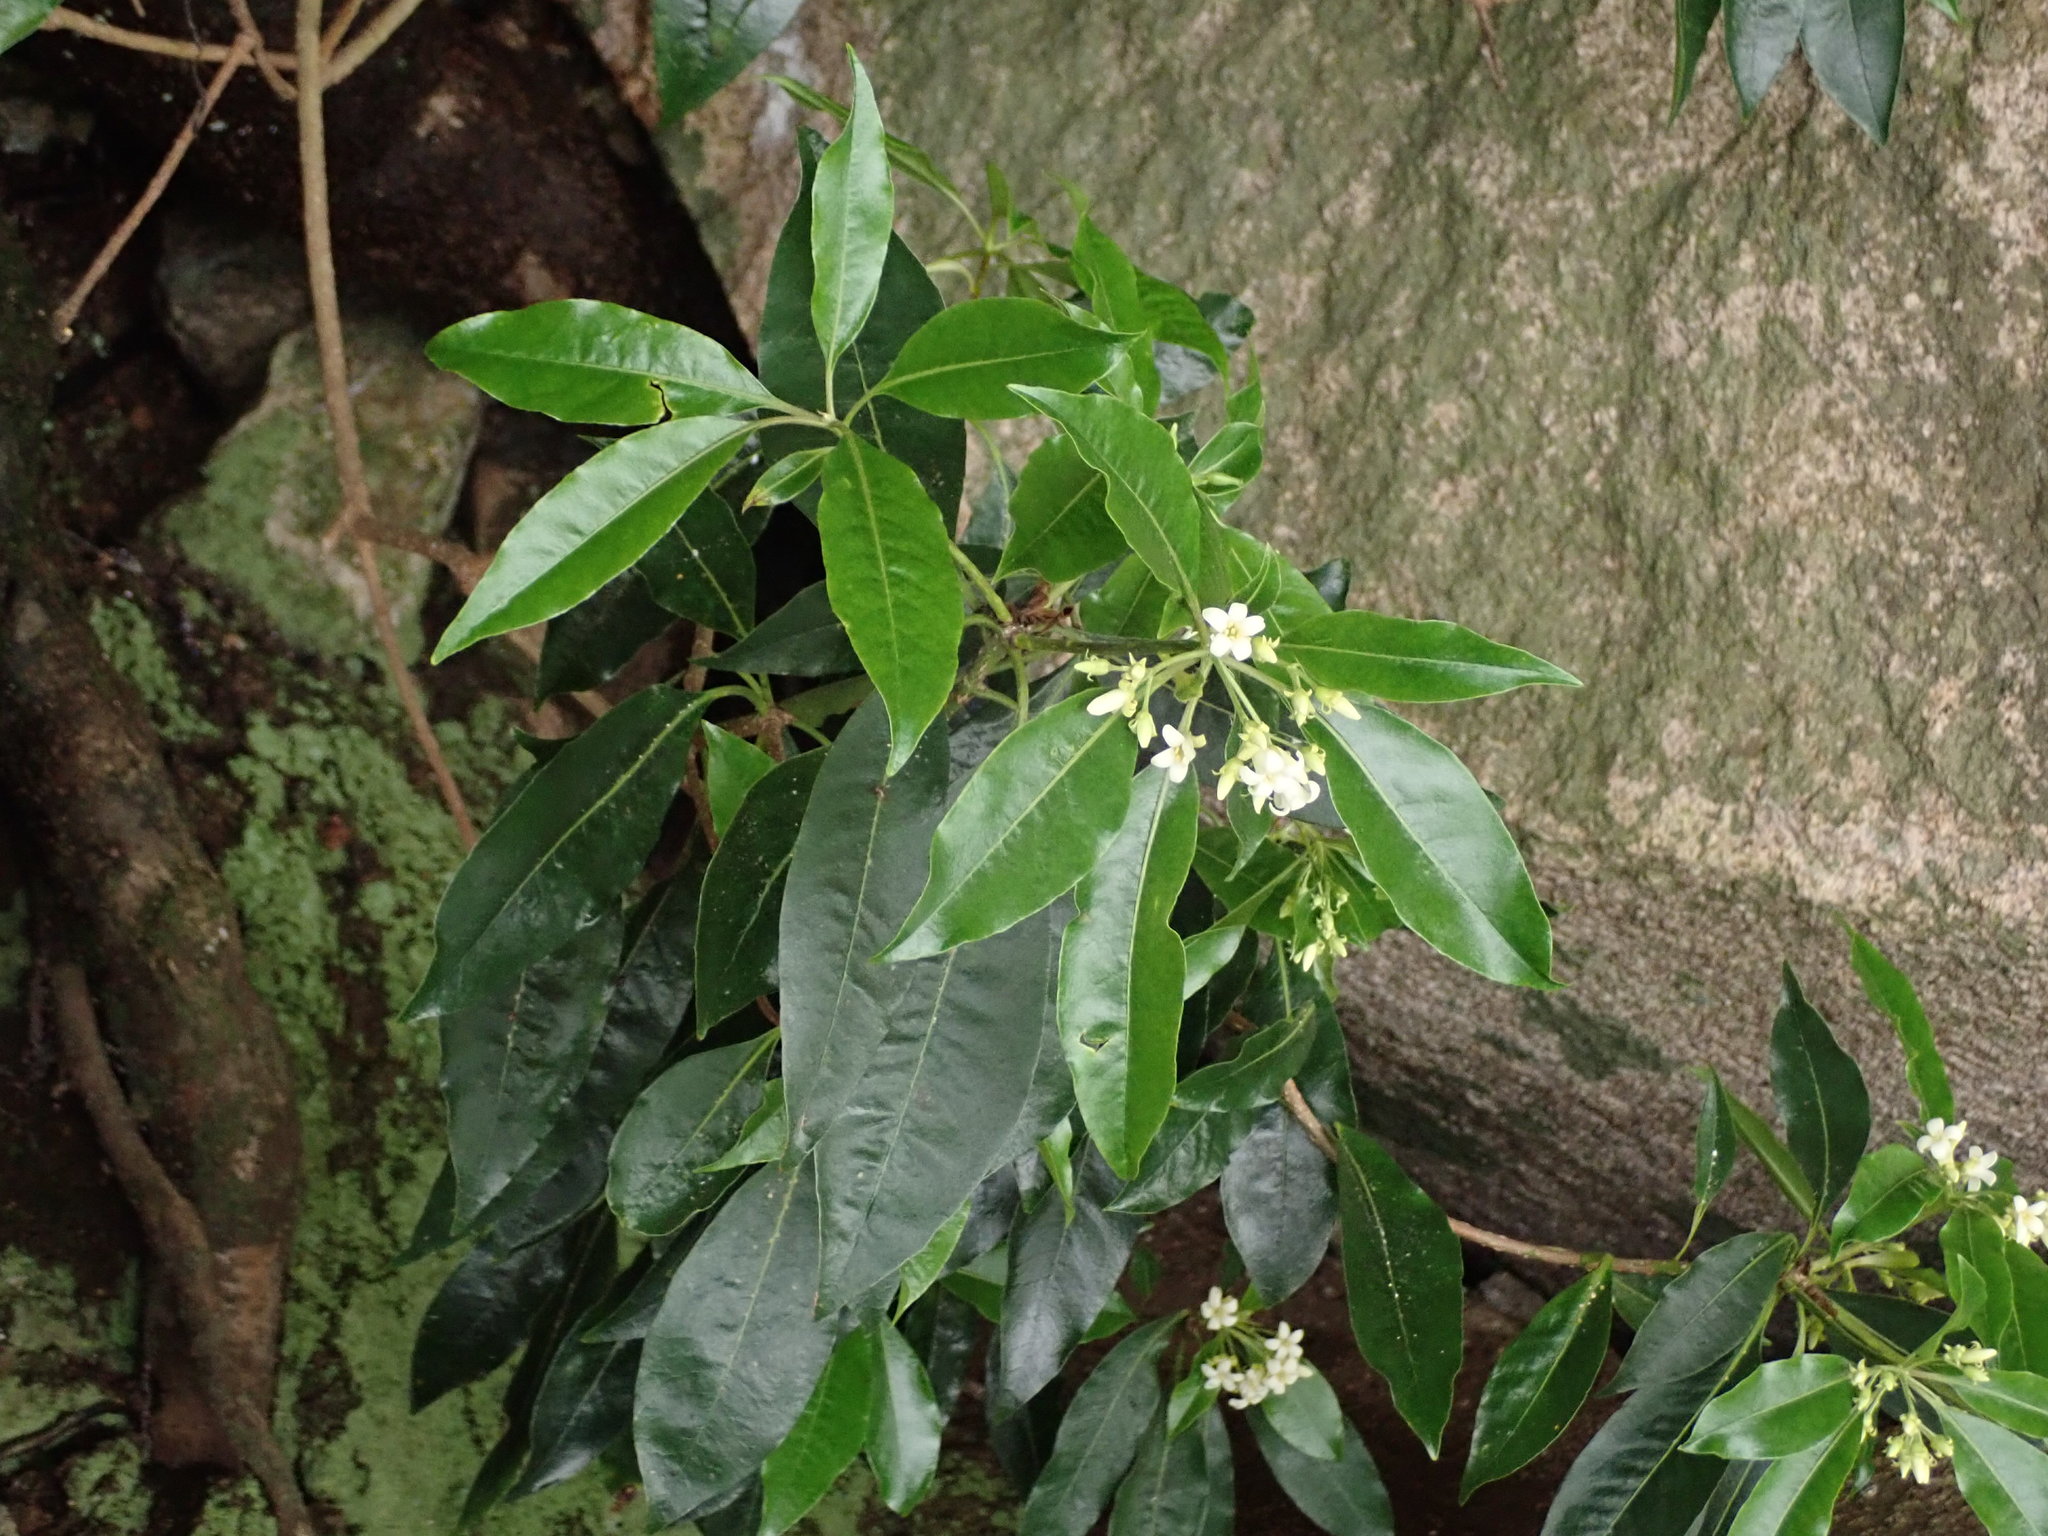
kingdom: Plantae
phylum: Tracheophyta
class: Magnoliopsida
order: Apiales
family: Pittosporaceae
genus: Pittosporum
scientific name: Pittosporum undulatum
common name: Australian cheesewood
